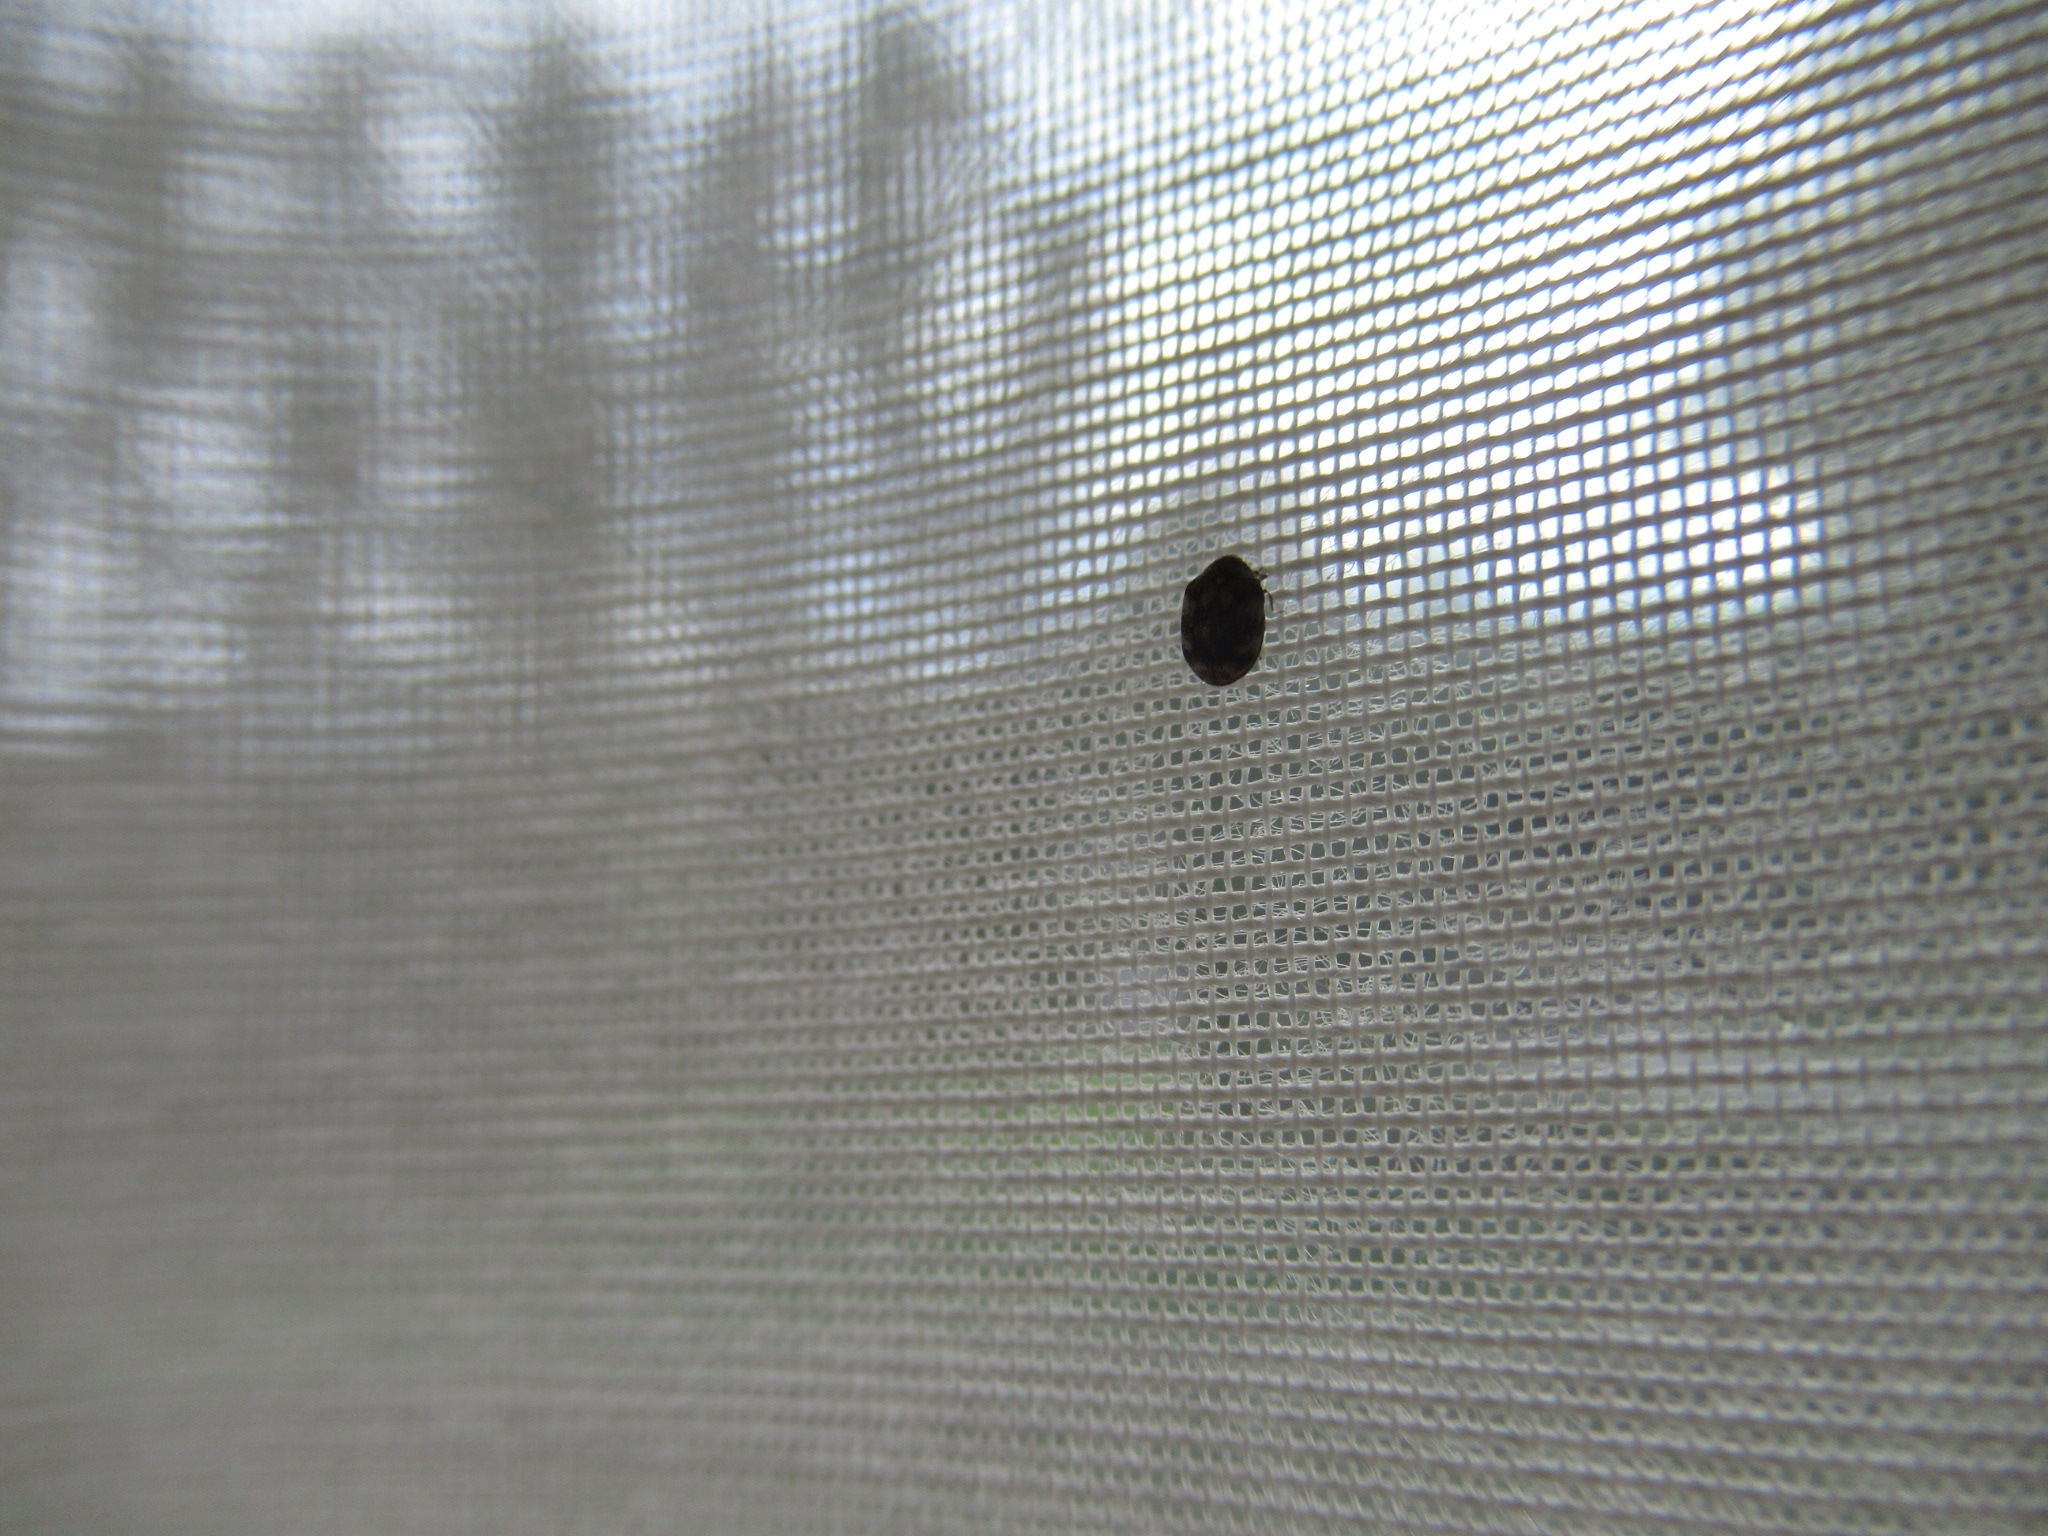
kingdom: Animalia
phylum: Arthropoda
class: Insecta
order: Coleoptera
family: Dermestidae
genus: Anthrenus
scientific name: Anthrenus verbasci
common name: Varied carpet beetle
